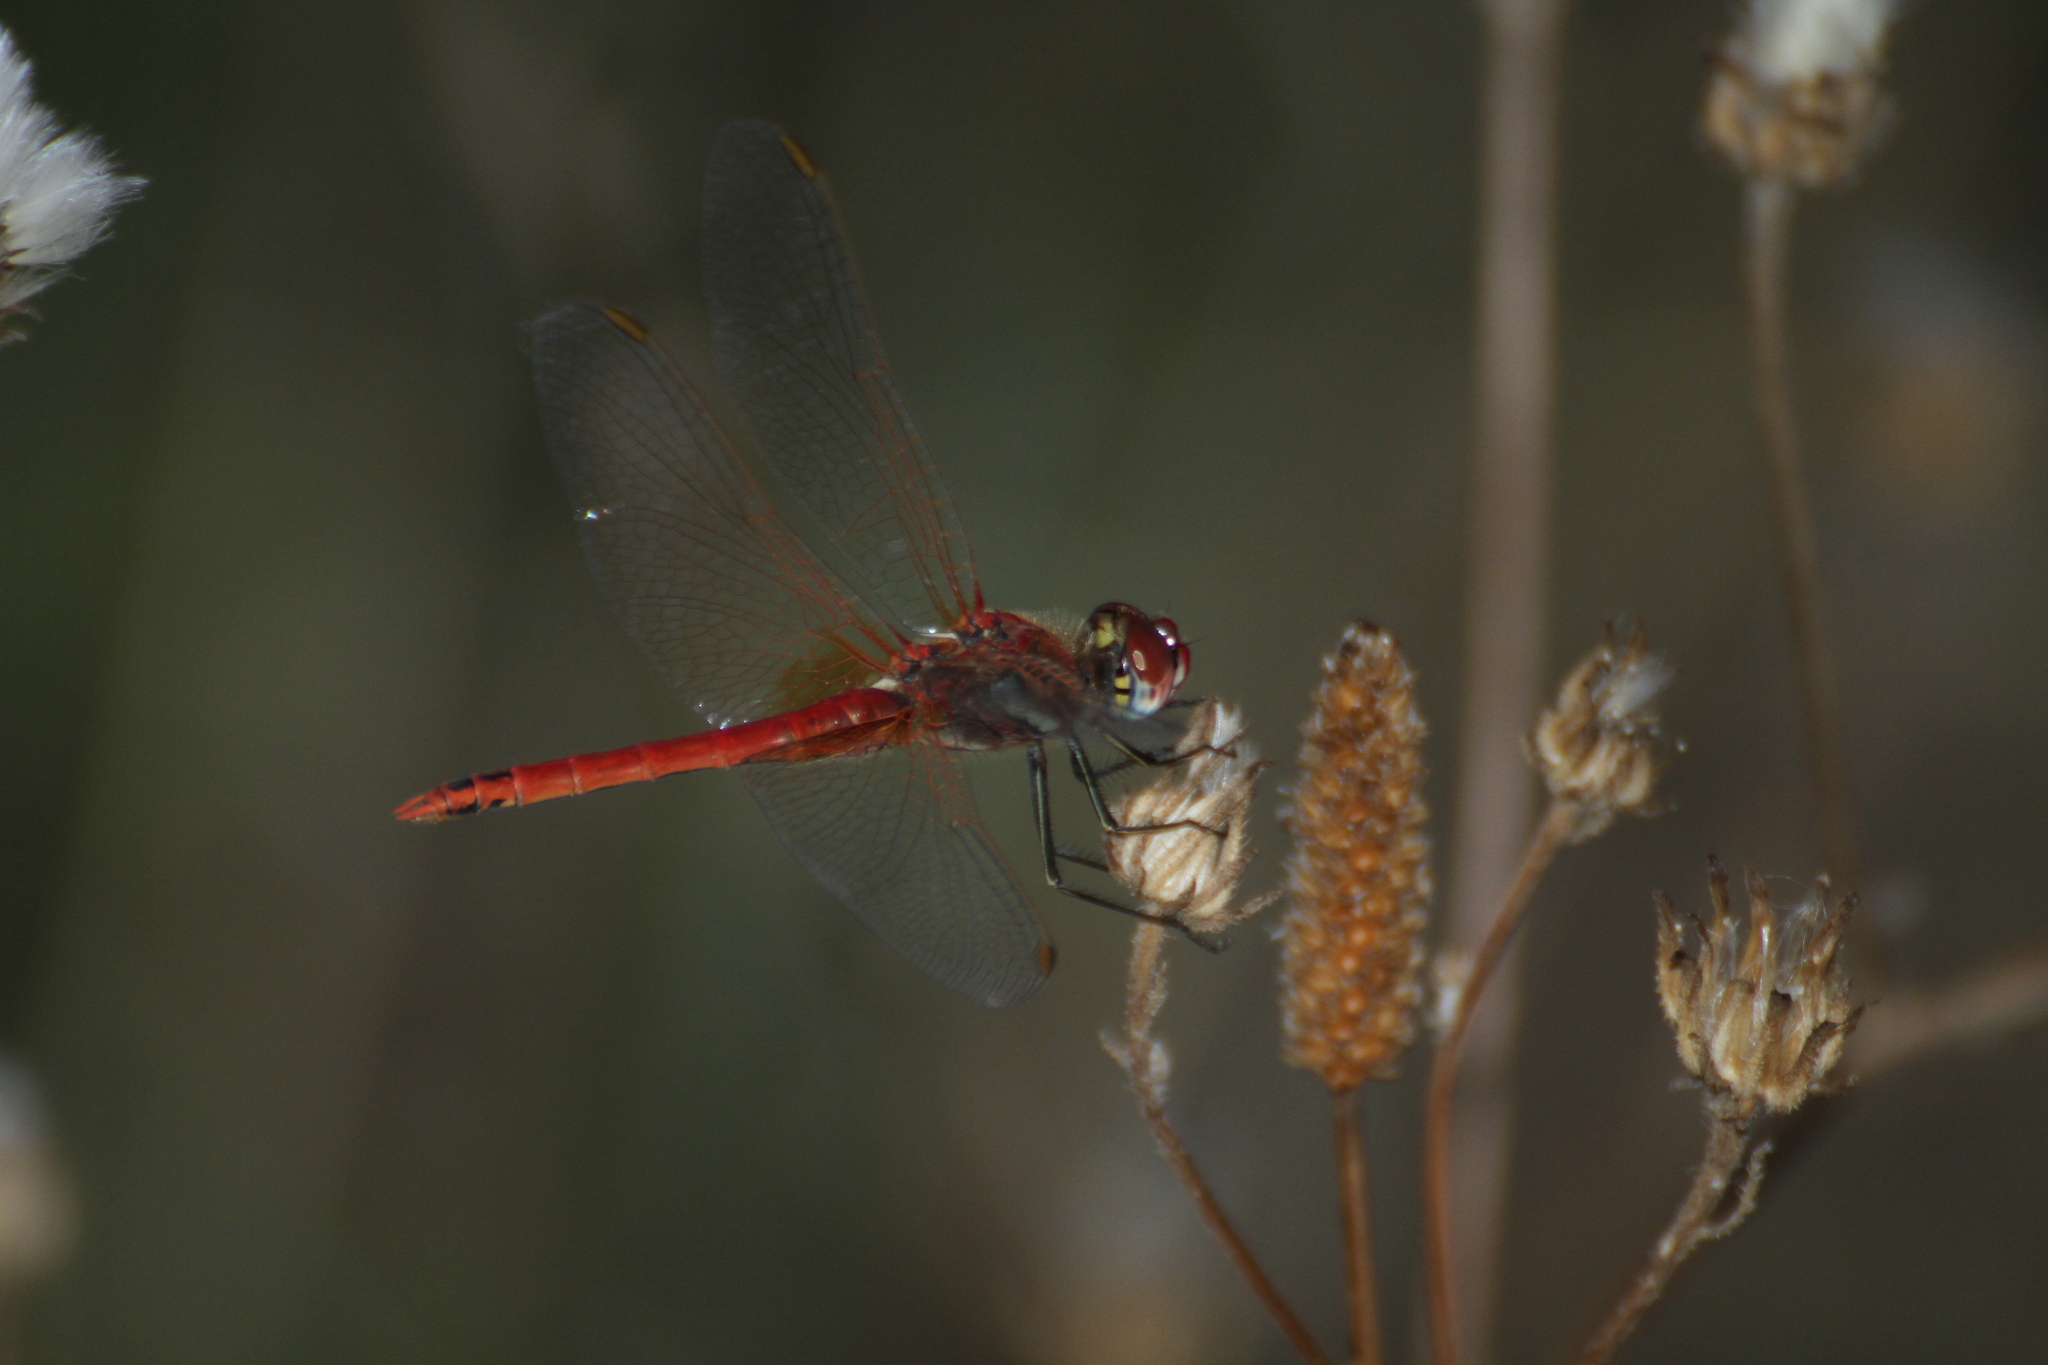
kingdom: Animalia
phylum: Arthropoda
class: Insecta
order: Odonata
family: Libellulidae
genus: Sympetrum
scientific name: Sympetrum fonscolombii
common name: Red-veined darter
